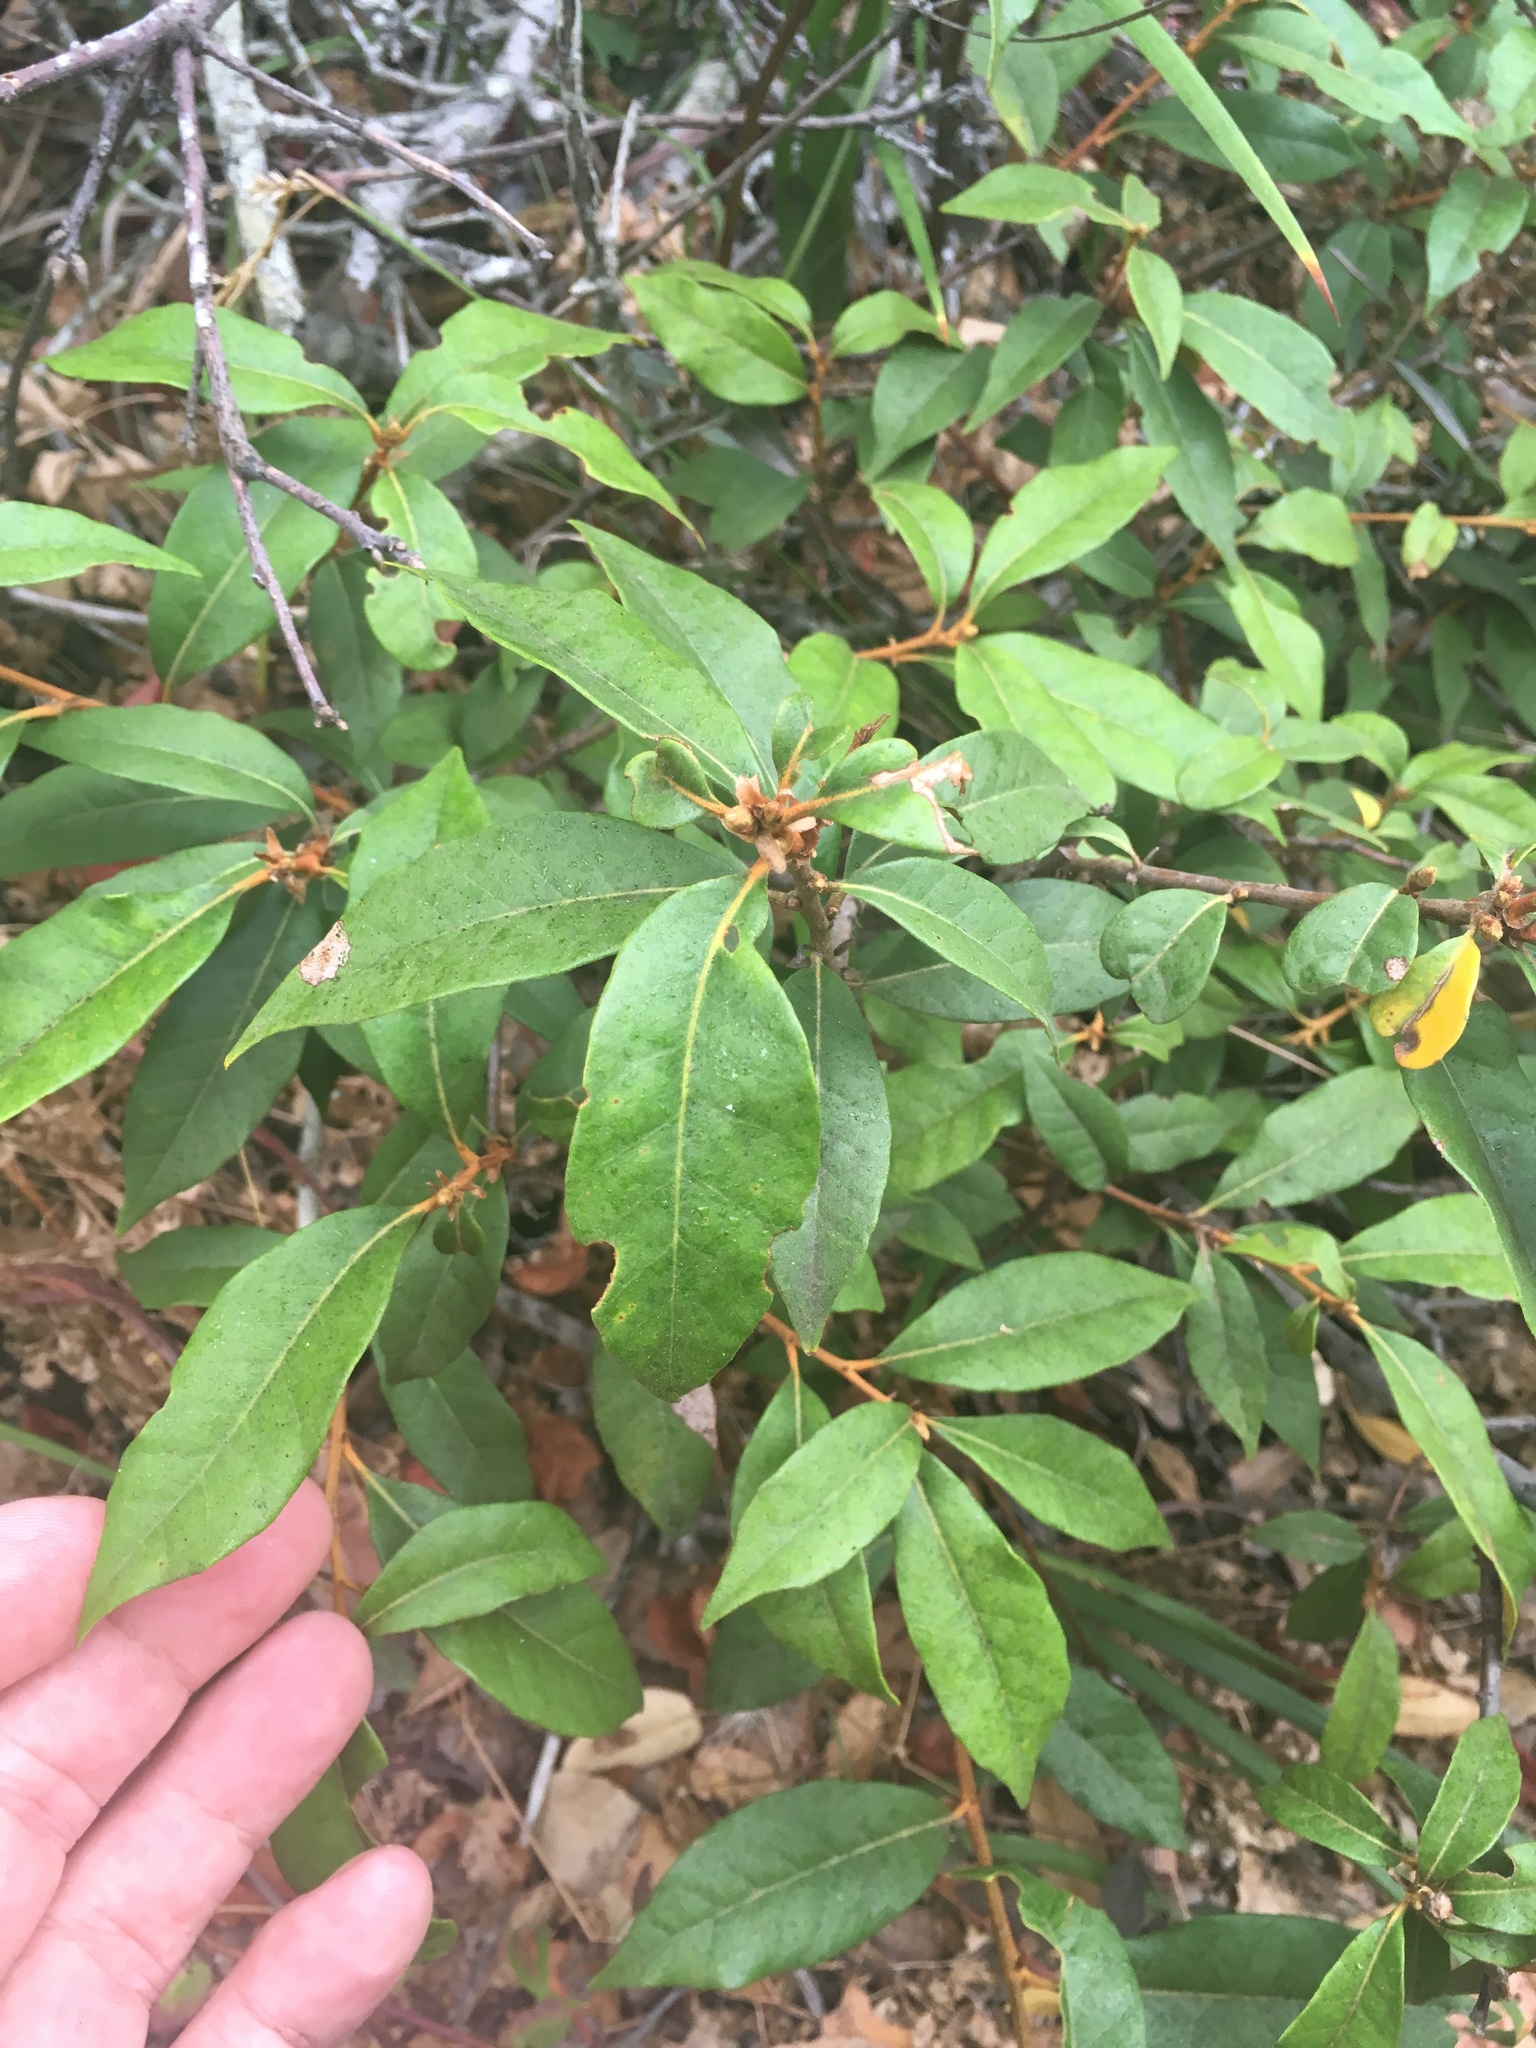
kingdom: Plantae
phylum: Tracheophyta
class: Magnoliopsida
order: Fagales
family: Fagaceae
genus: Chrysolepis
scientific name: Chrysolepis chrysophylla
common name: Giant chinquapin
